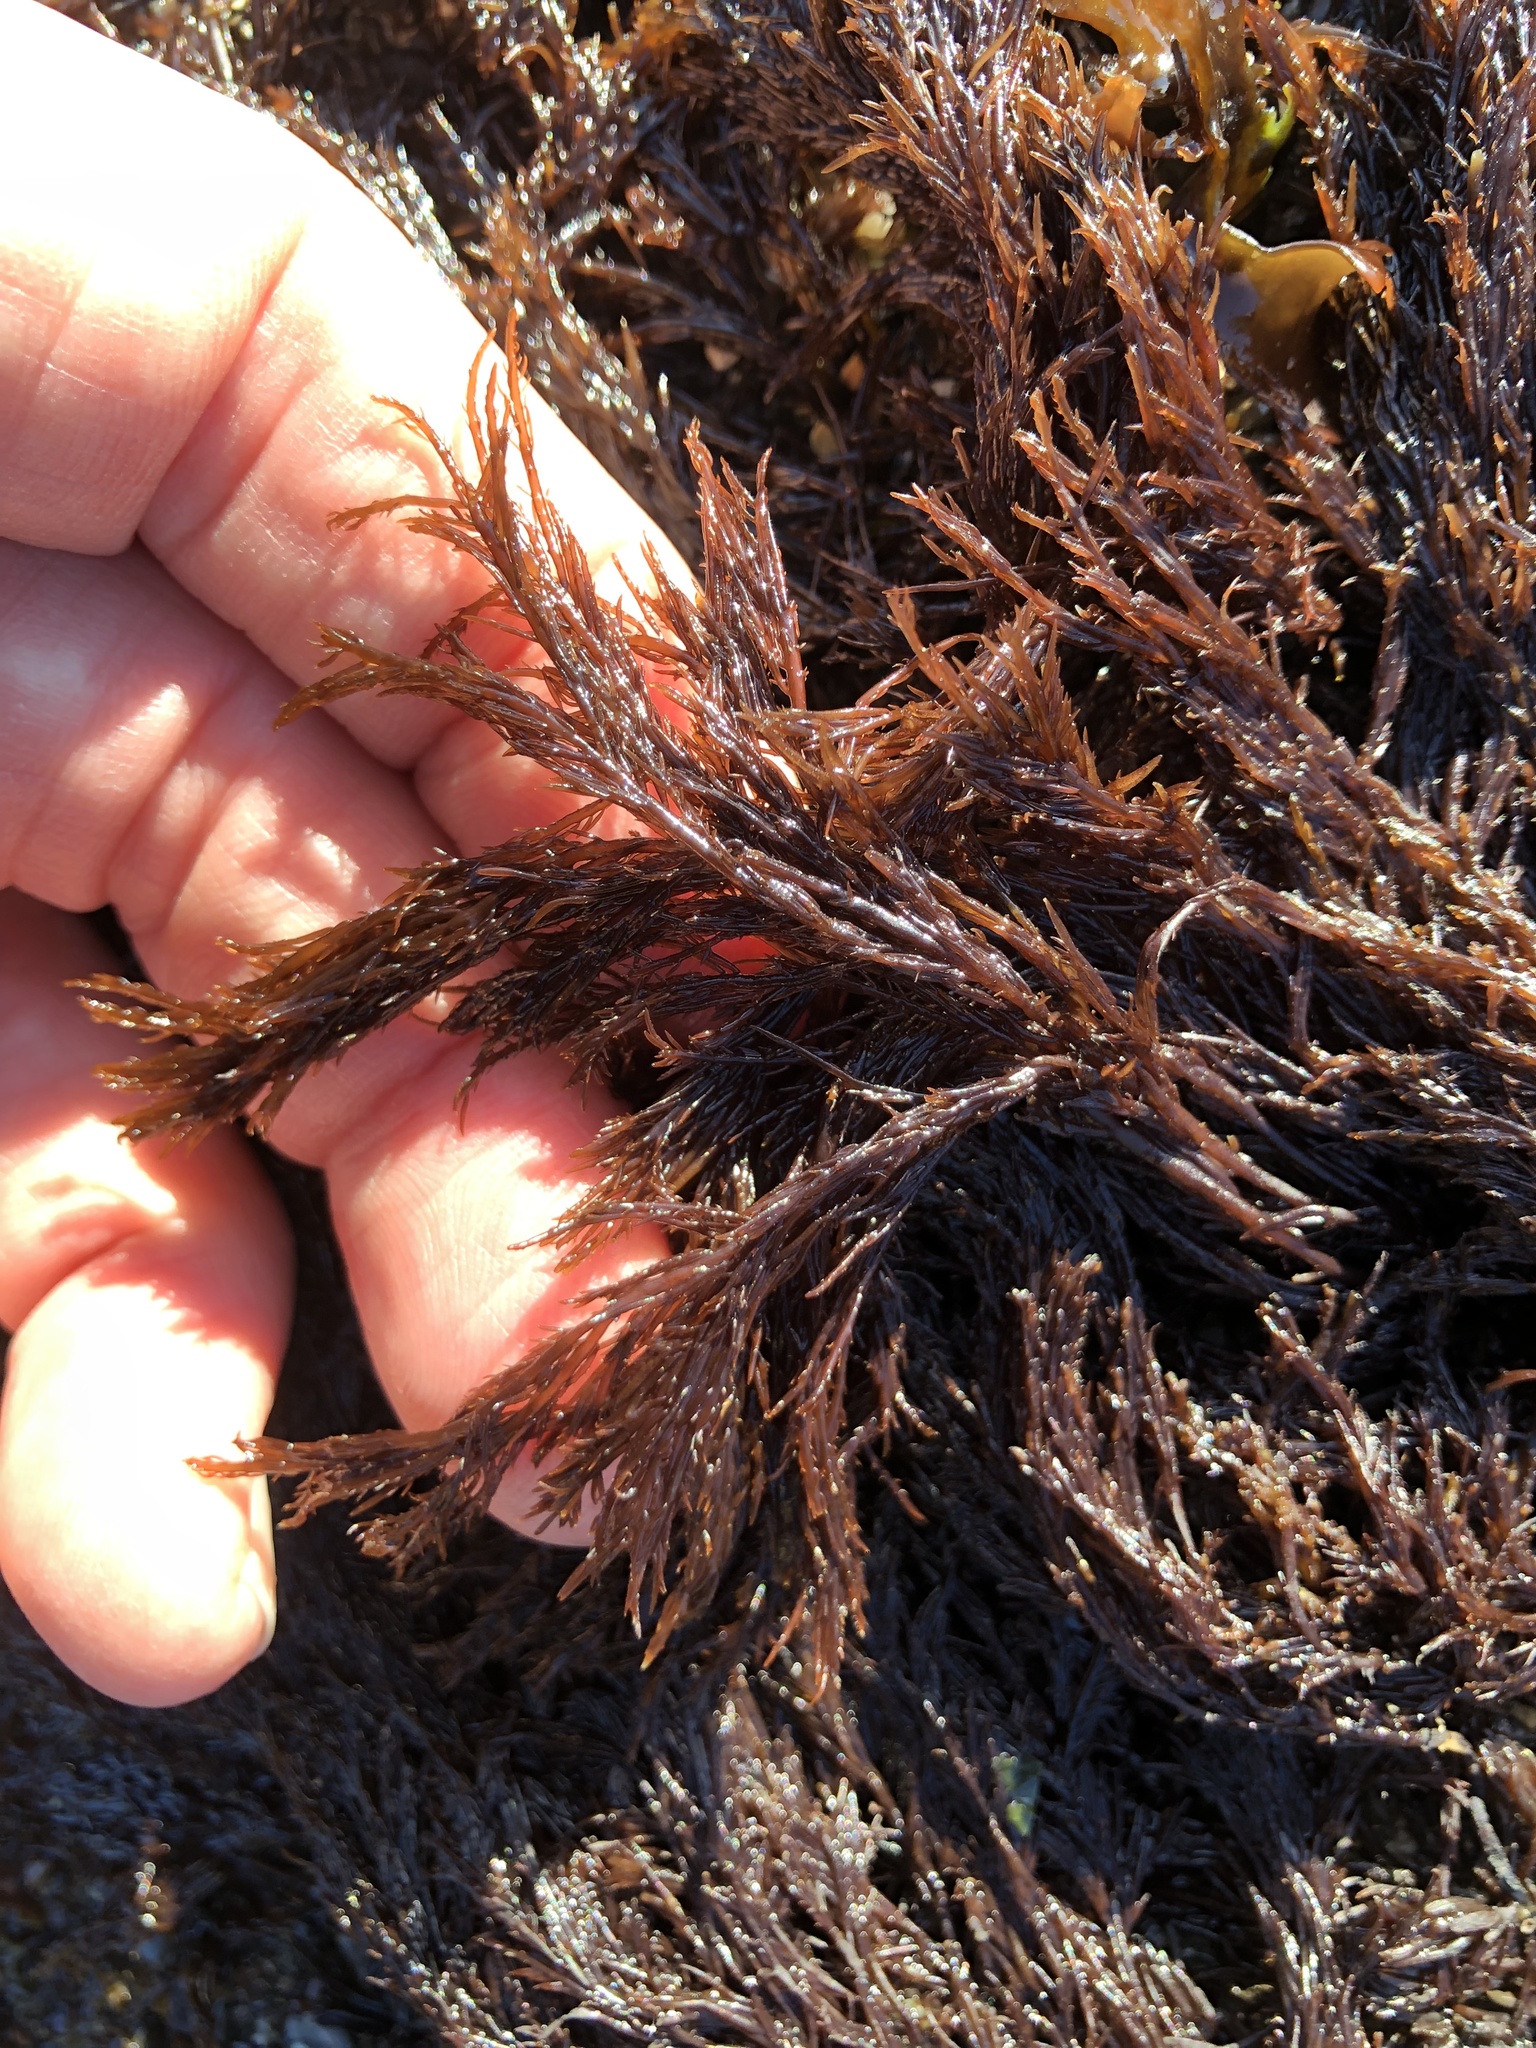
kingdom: Plantae
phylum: Rhodophyta
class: Florideophyceae
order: Gigartinales
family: Dumontiaceae
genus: Cryptosiphonia
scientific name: Cryptosiphonia woodii
